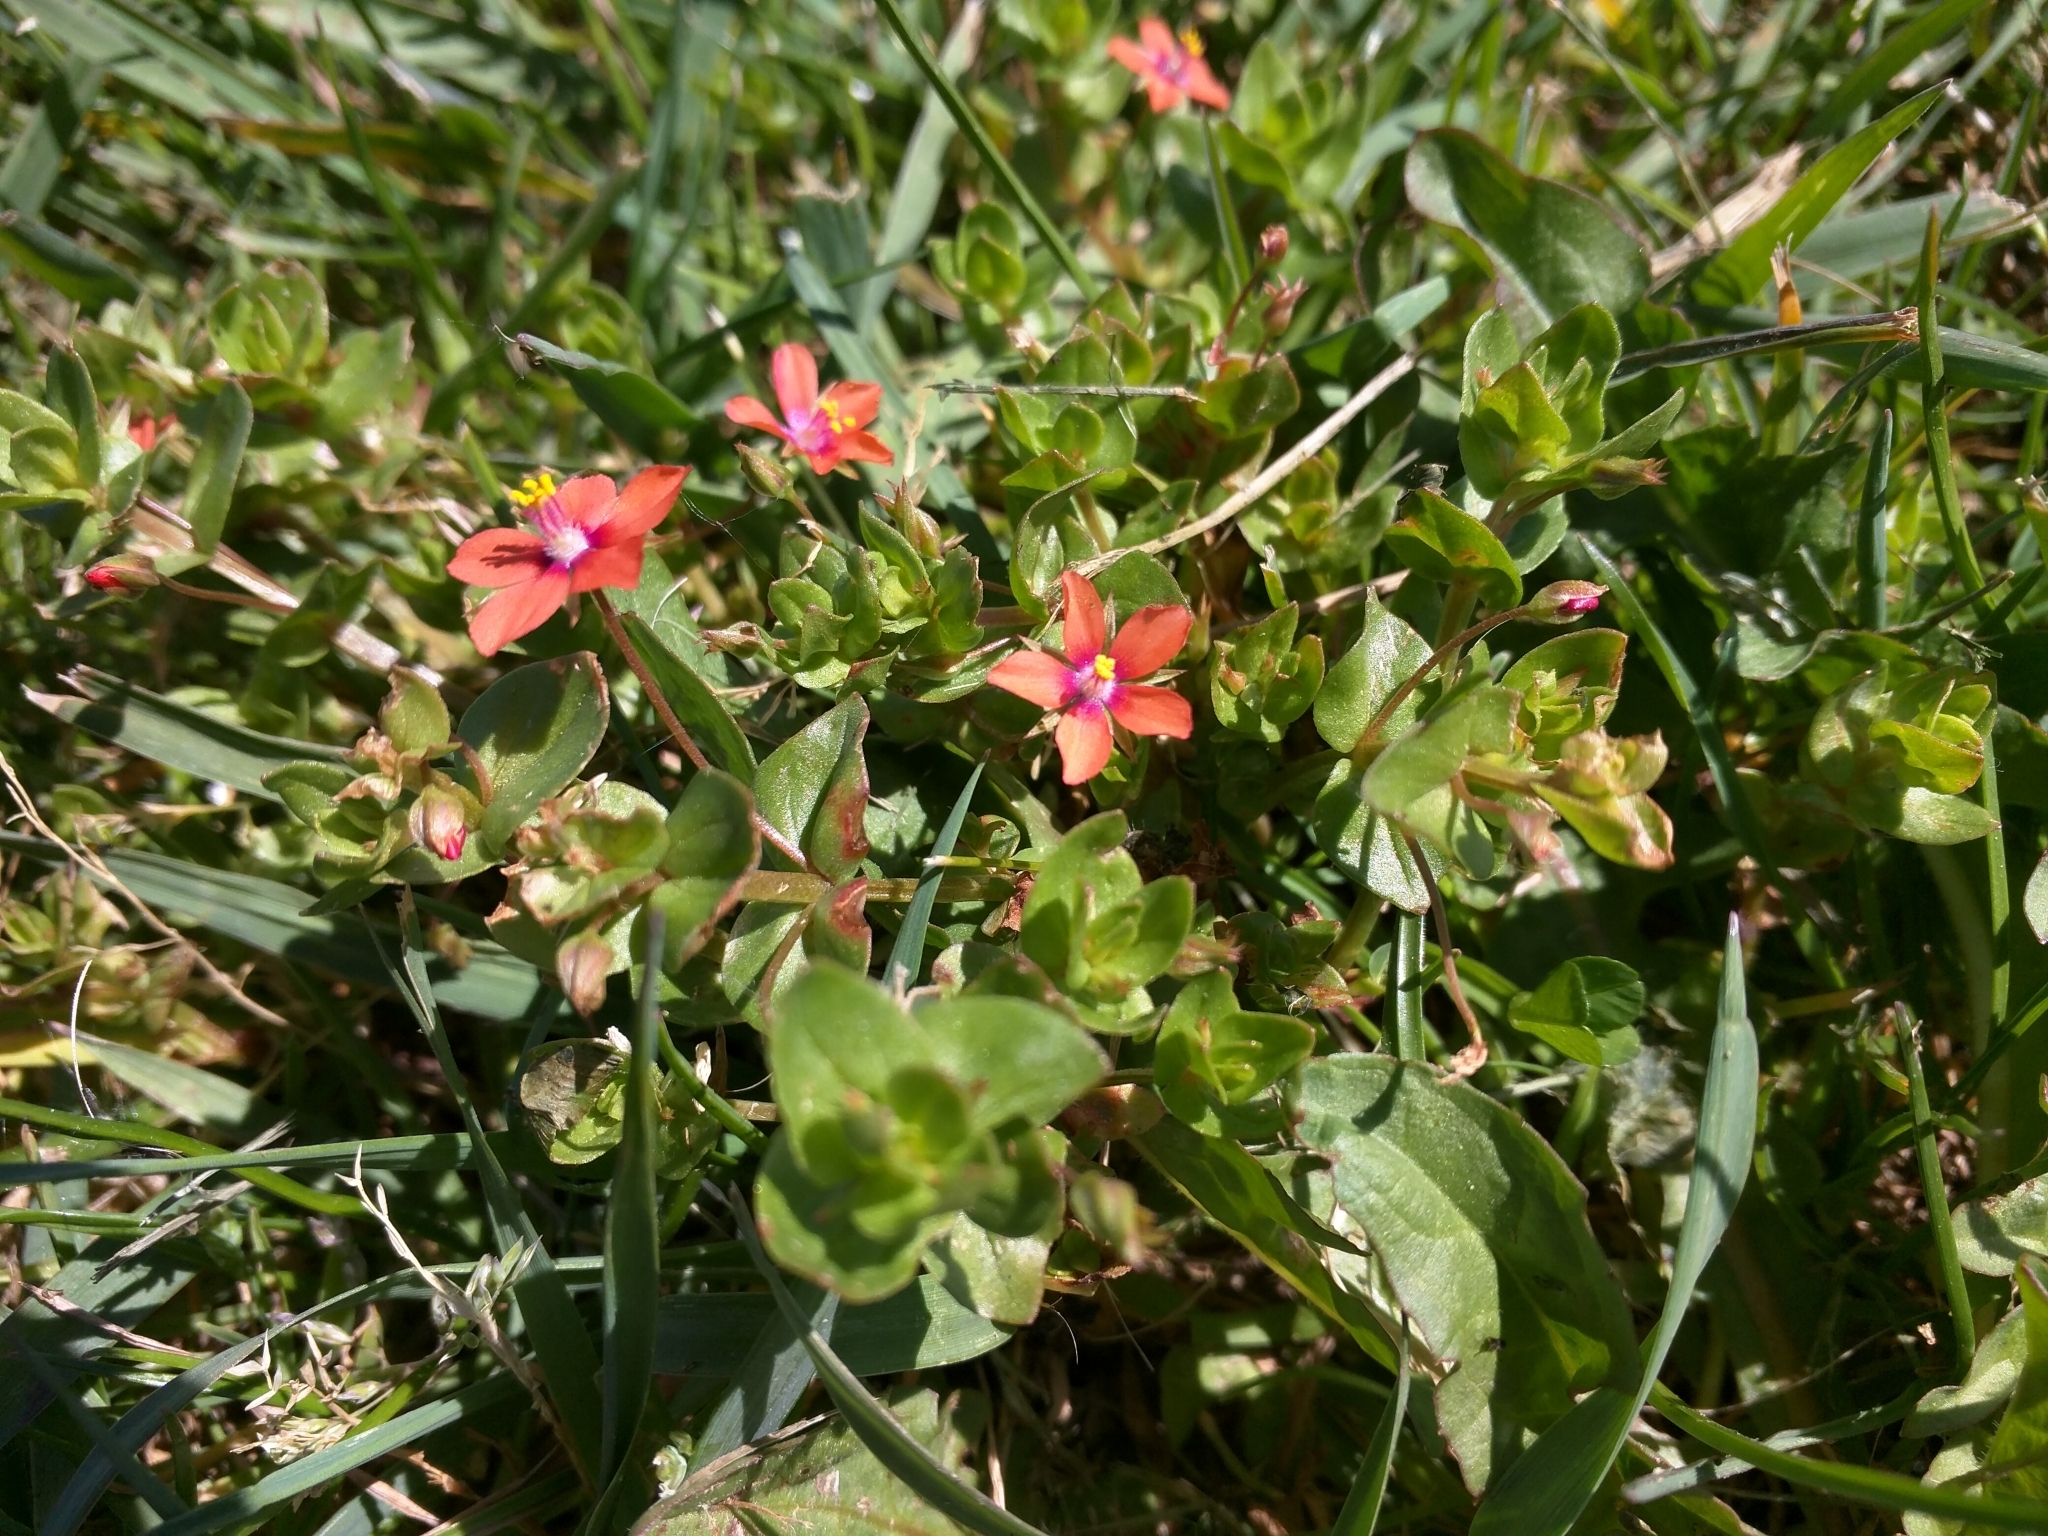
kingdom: Plantae
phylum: Tracheophyta
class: Magnoliopsida
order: Ericales
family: Primulaceae
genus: Lysimachia
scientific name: Lysimachia arvensis
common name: Scarlet pimpernel
